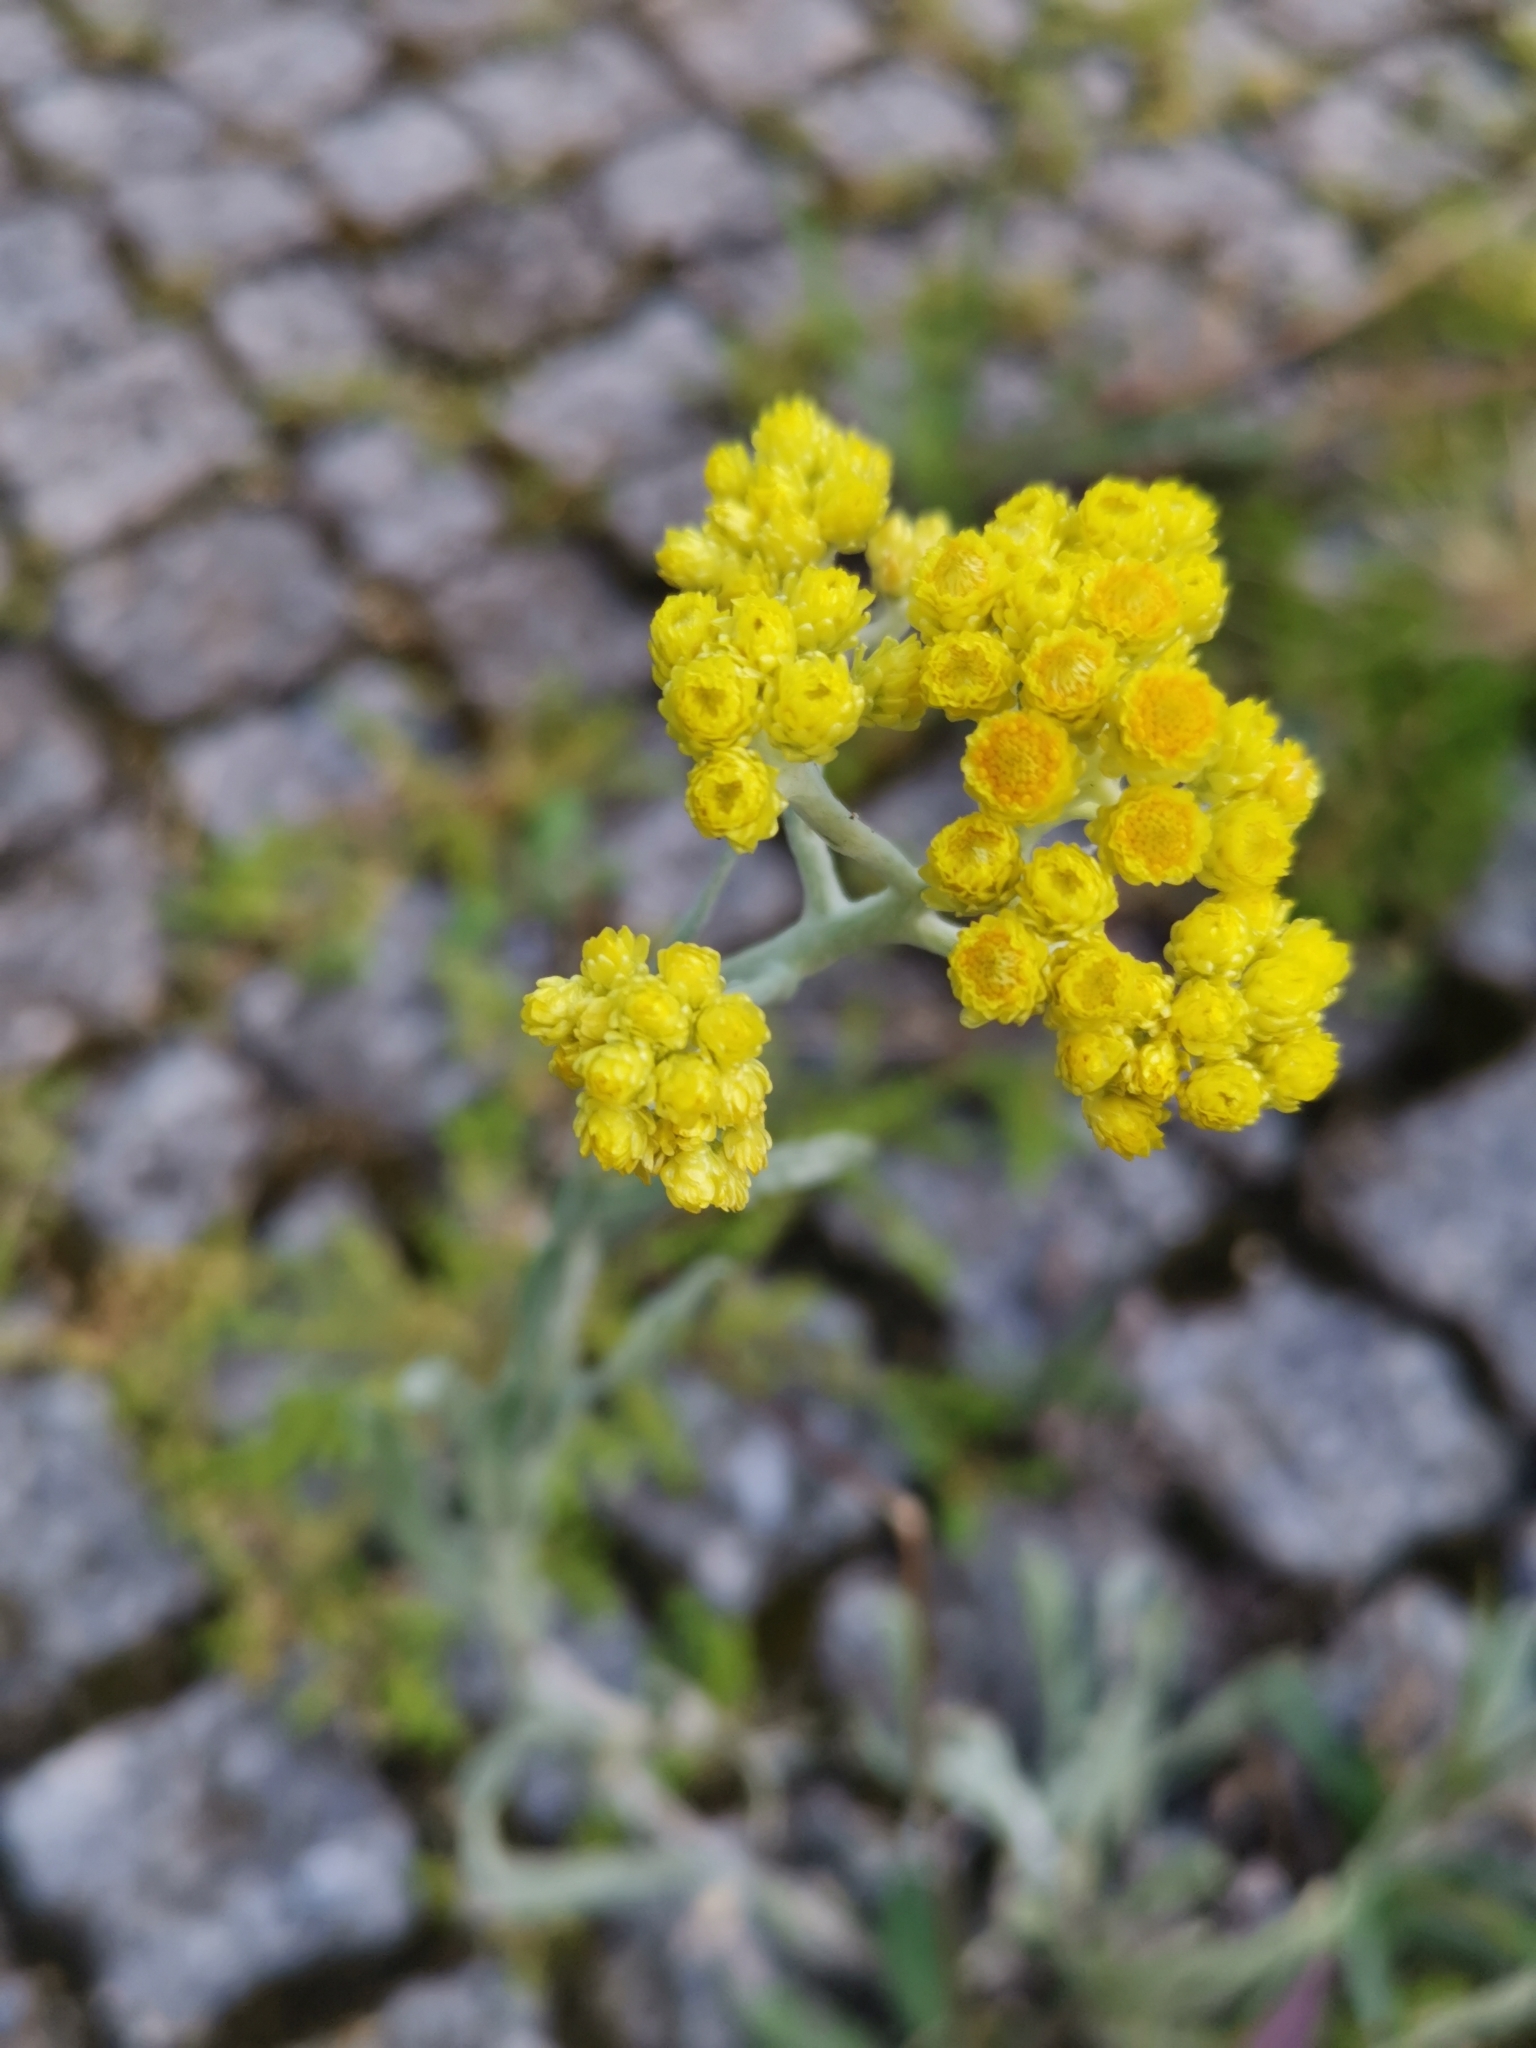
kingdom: Plantae
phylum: Tracheophyta
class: Magnoliopsida
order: Asterales
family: Asteraceae
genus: Helichrysum
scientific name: Helichrysum arenarium
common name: Strawflower
